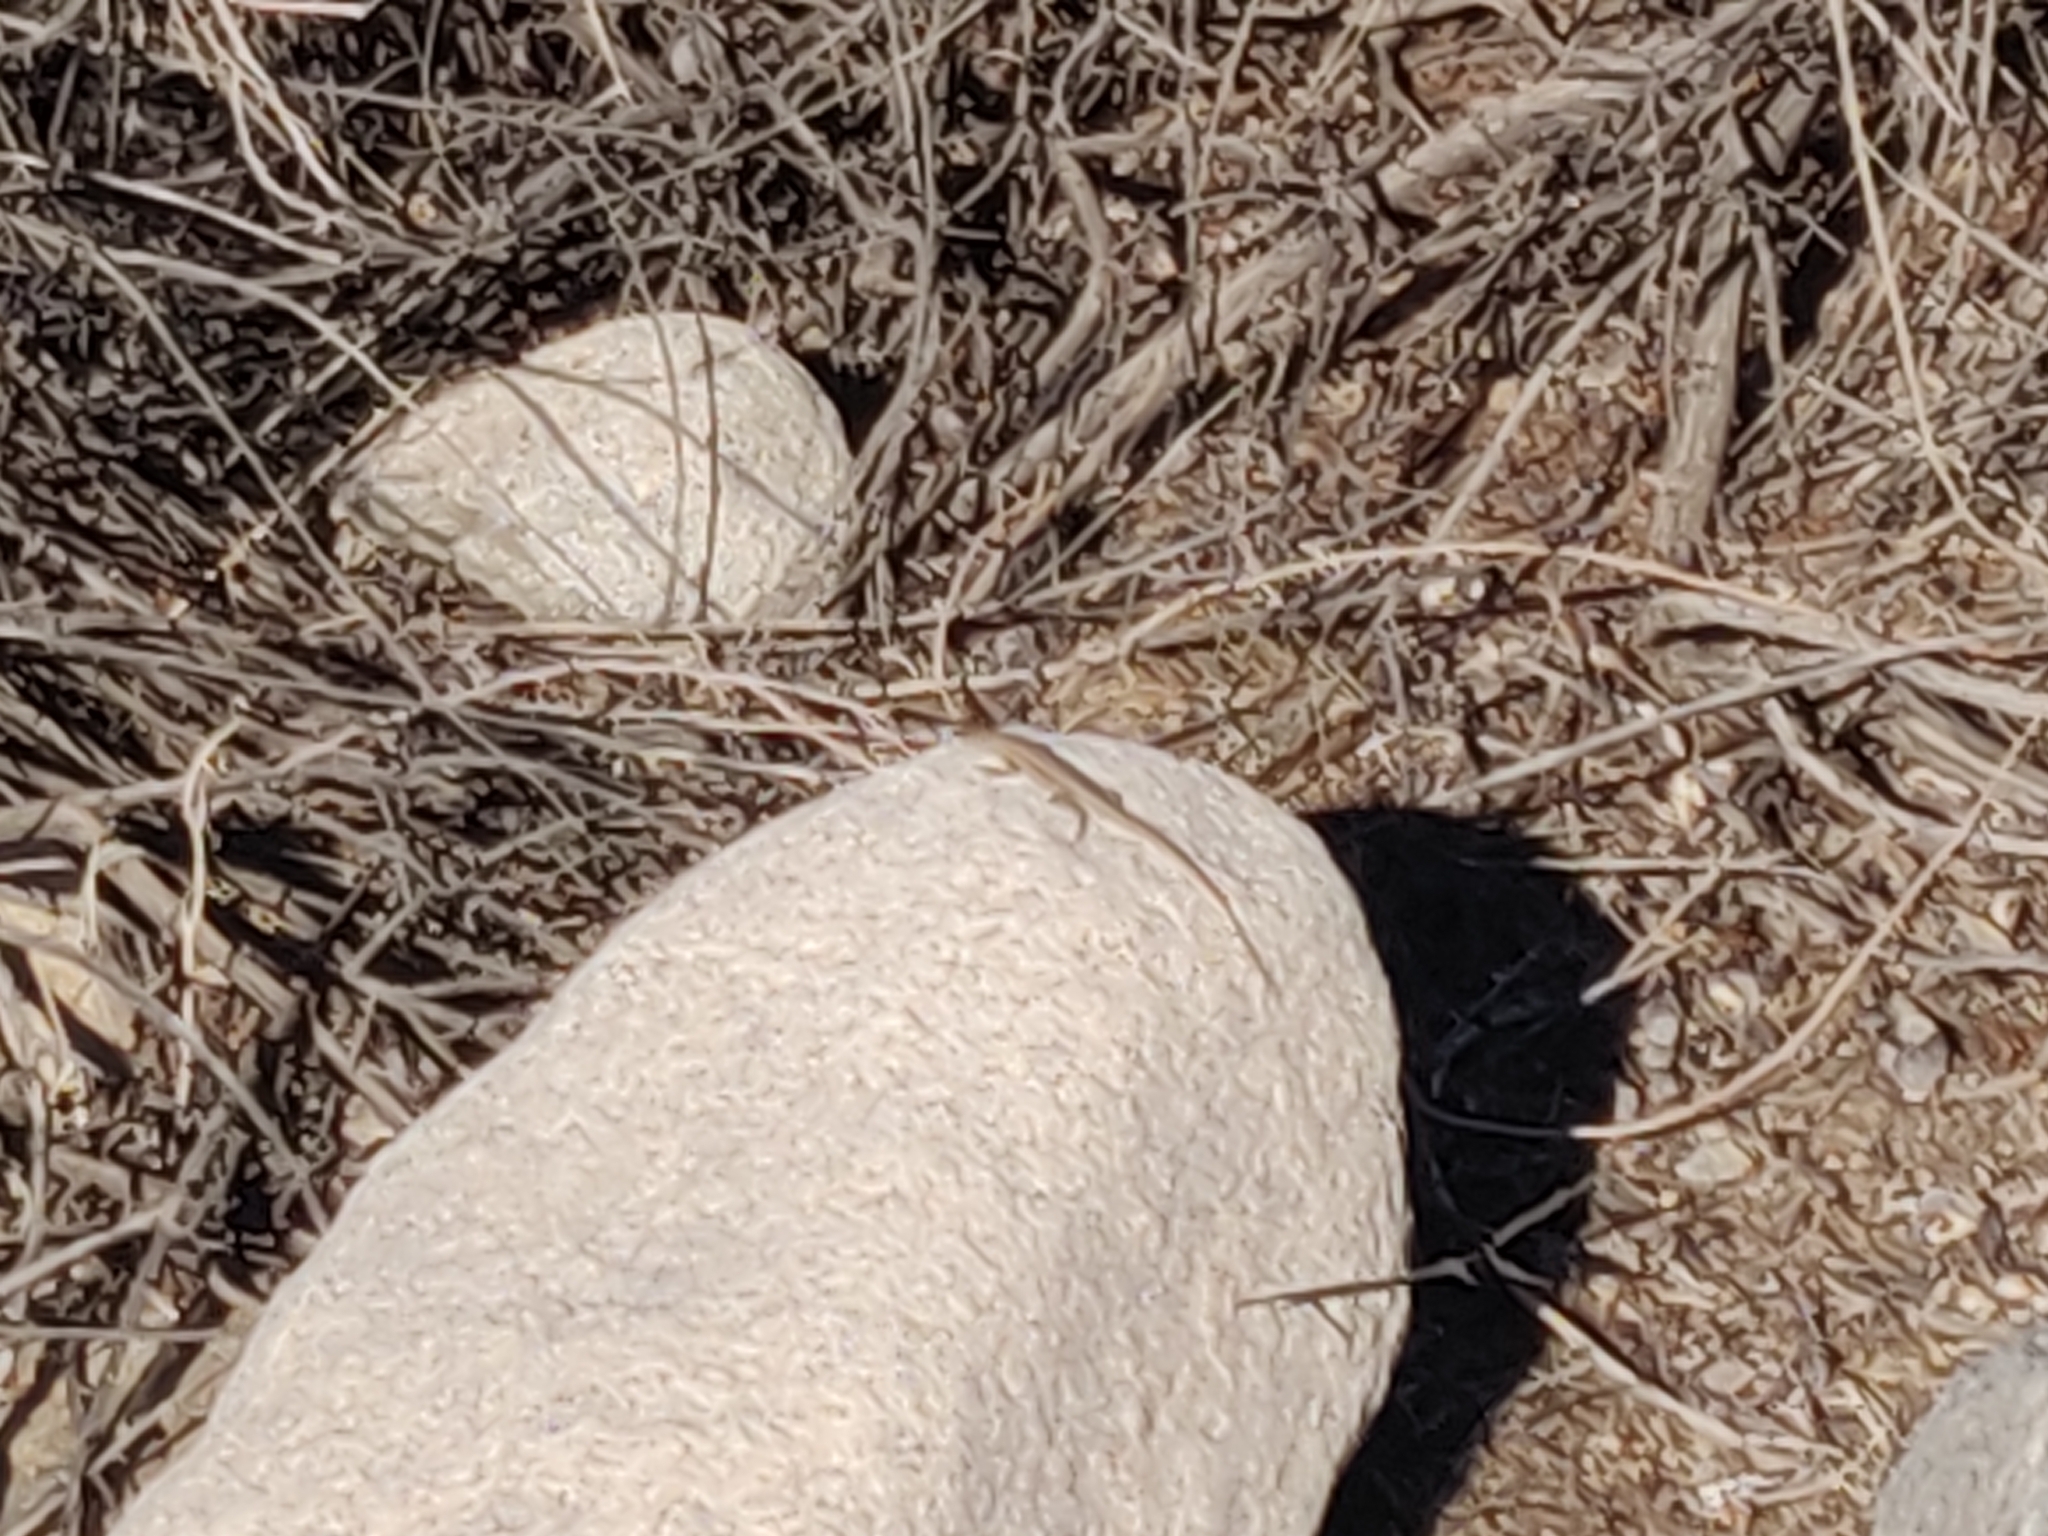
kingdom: Animalia
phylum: Chordata
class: Squamata
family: Phrynosomatidae
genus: Uta
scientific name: Uta stansburiana
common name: Side-blotched lizard
